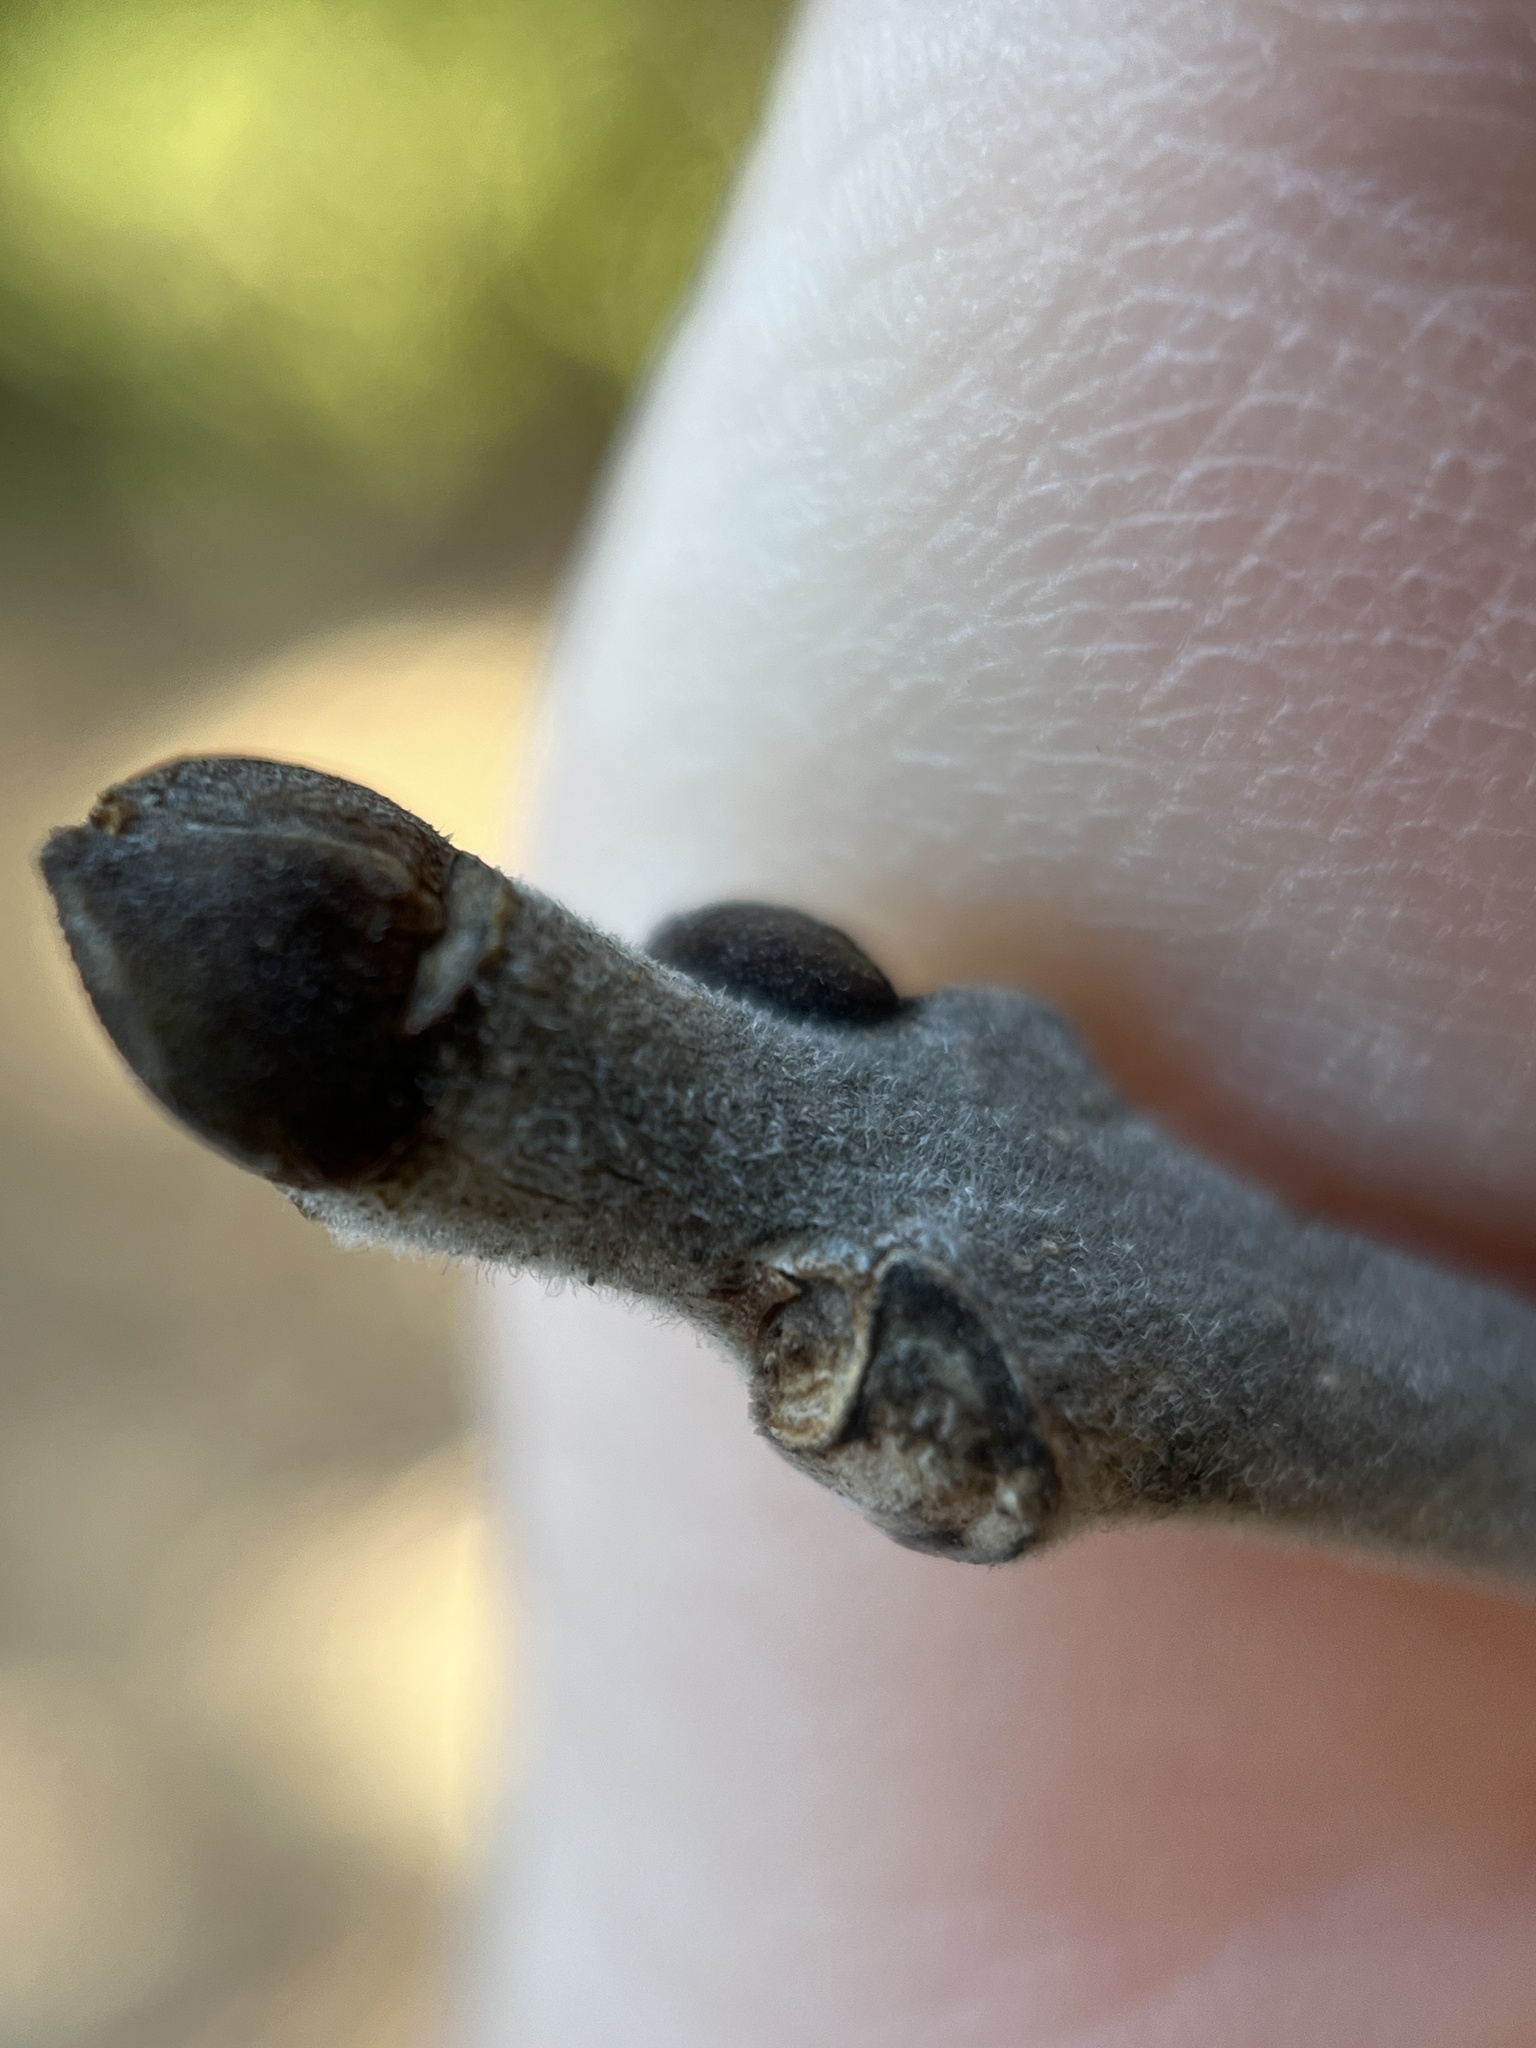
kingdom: Plantae
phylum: Tracheophyta
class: Magnoliopsida
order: Lamiales
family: Oleaceae
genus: Fraxinus
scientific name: Fraxinus americana
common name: White ash
